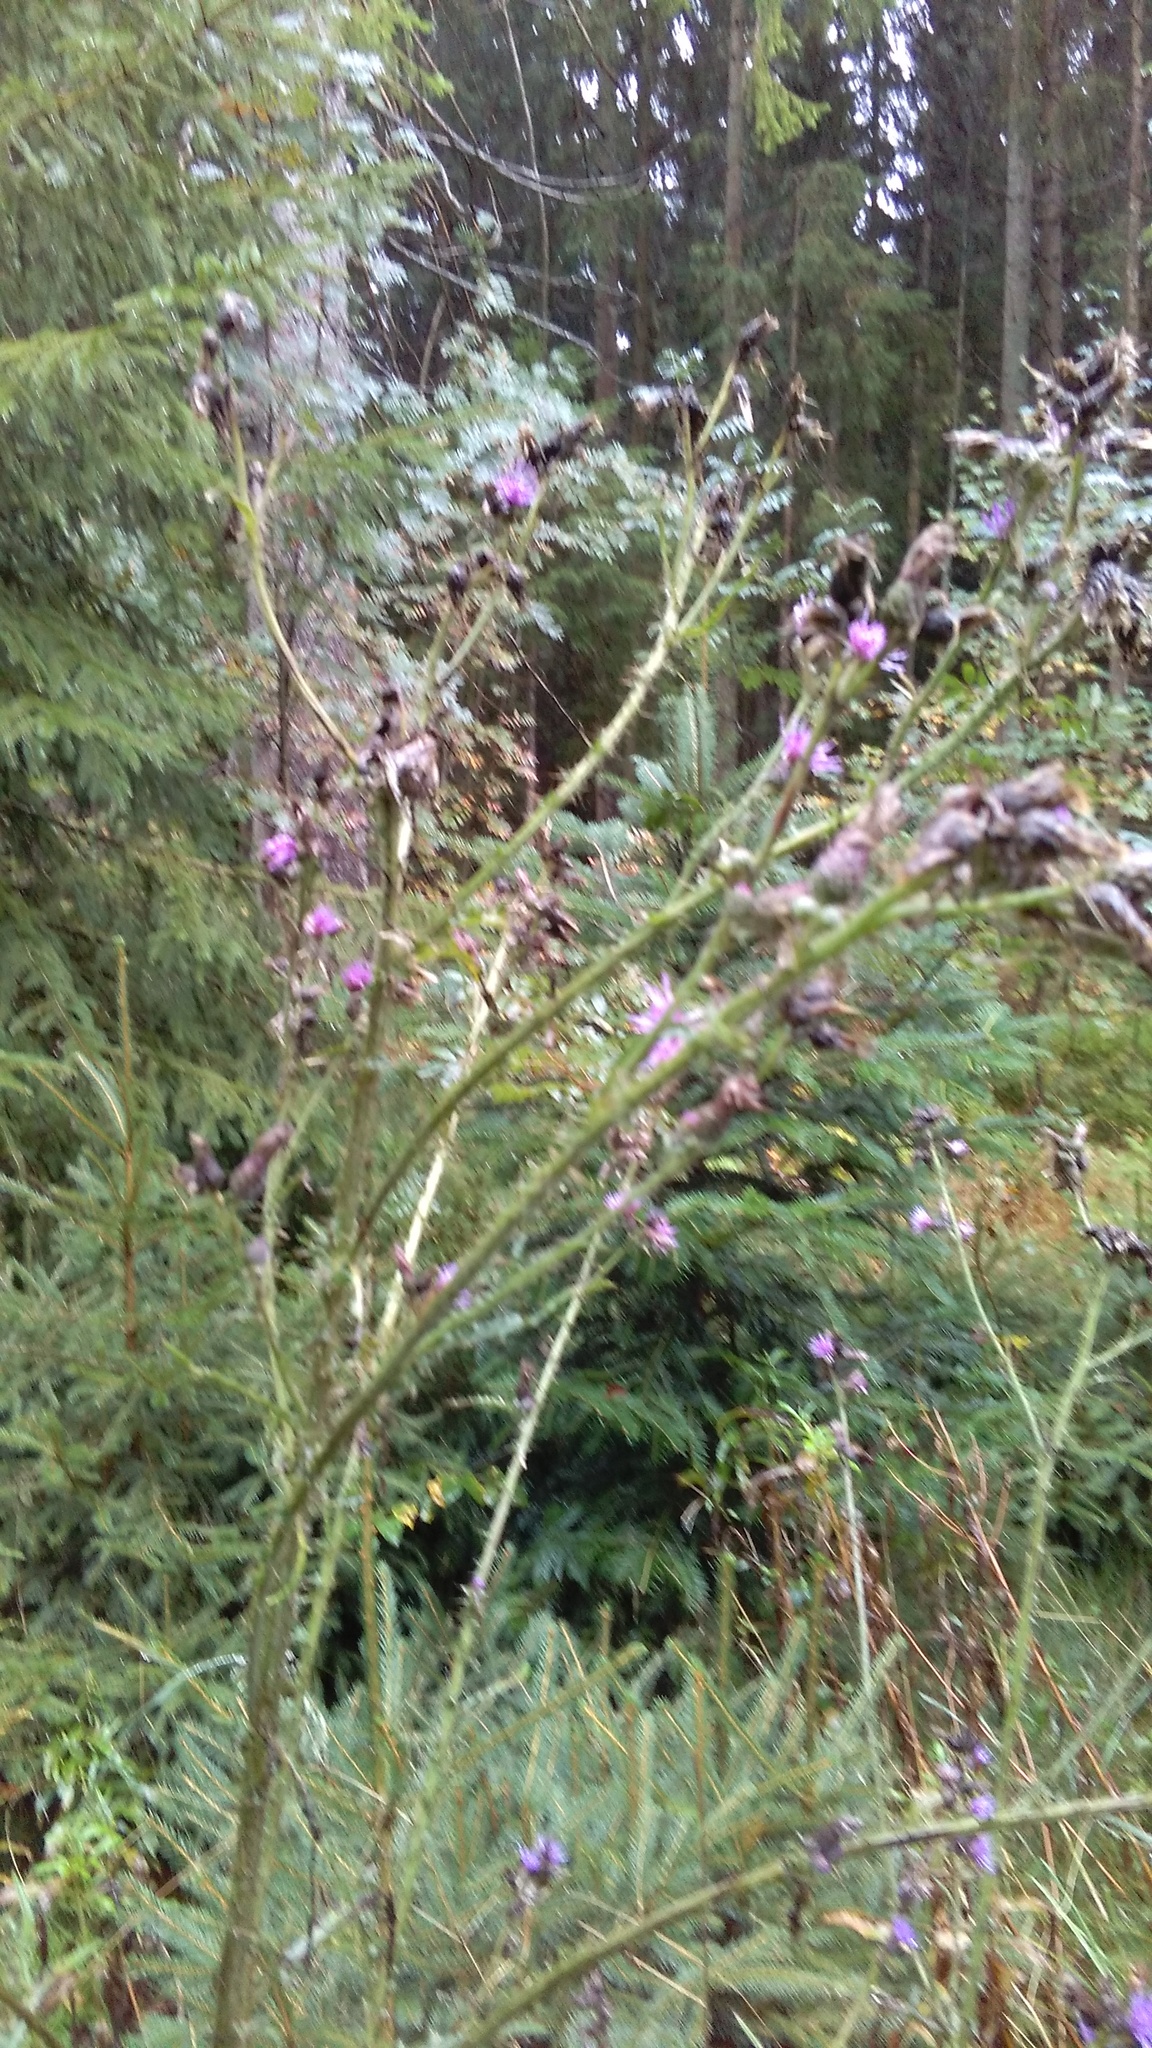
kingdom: Plantae
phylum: Tracheophyta
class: Magnoliopsida
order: Asterales
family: Asteraceae
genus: Cirsium
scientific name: Cirsium palustre
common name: Marsh thistle
